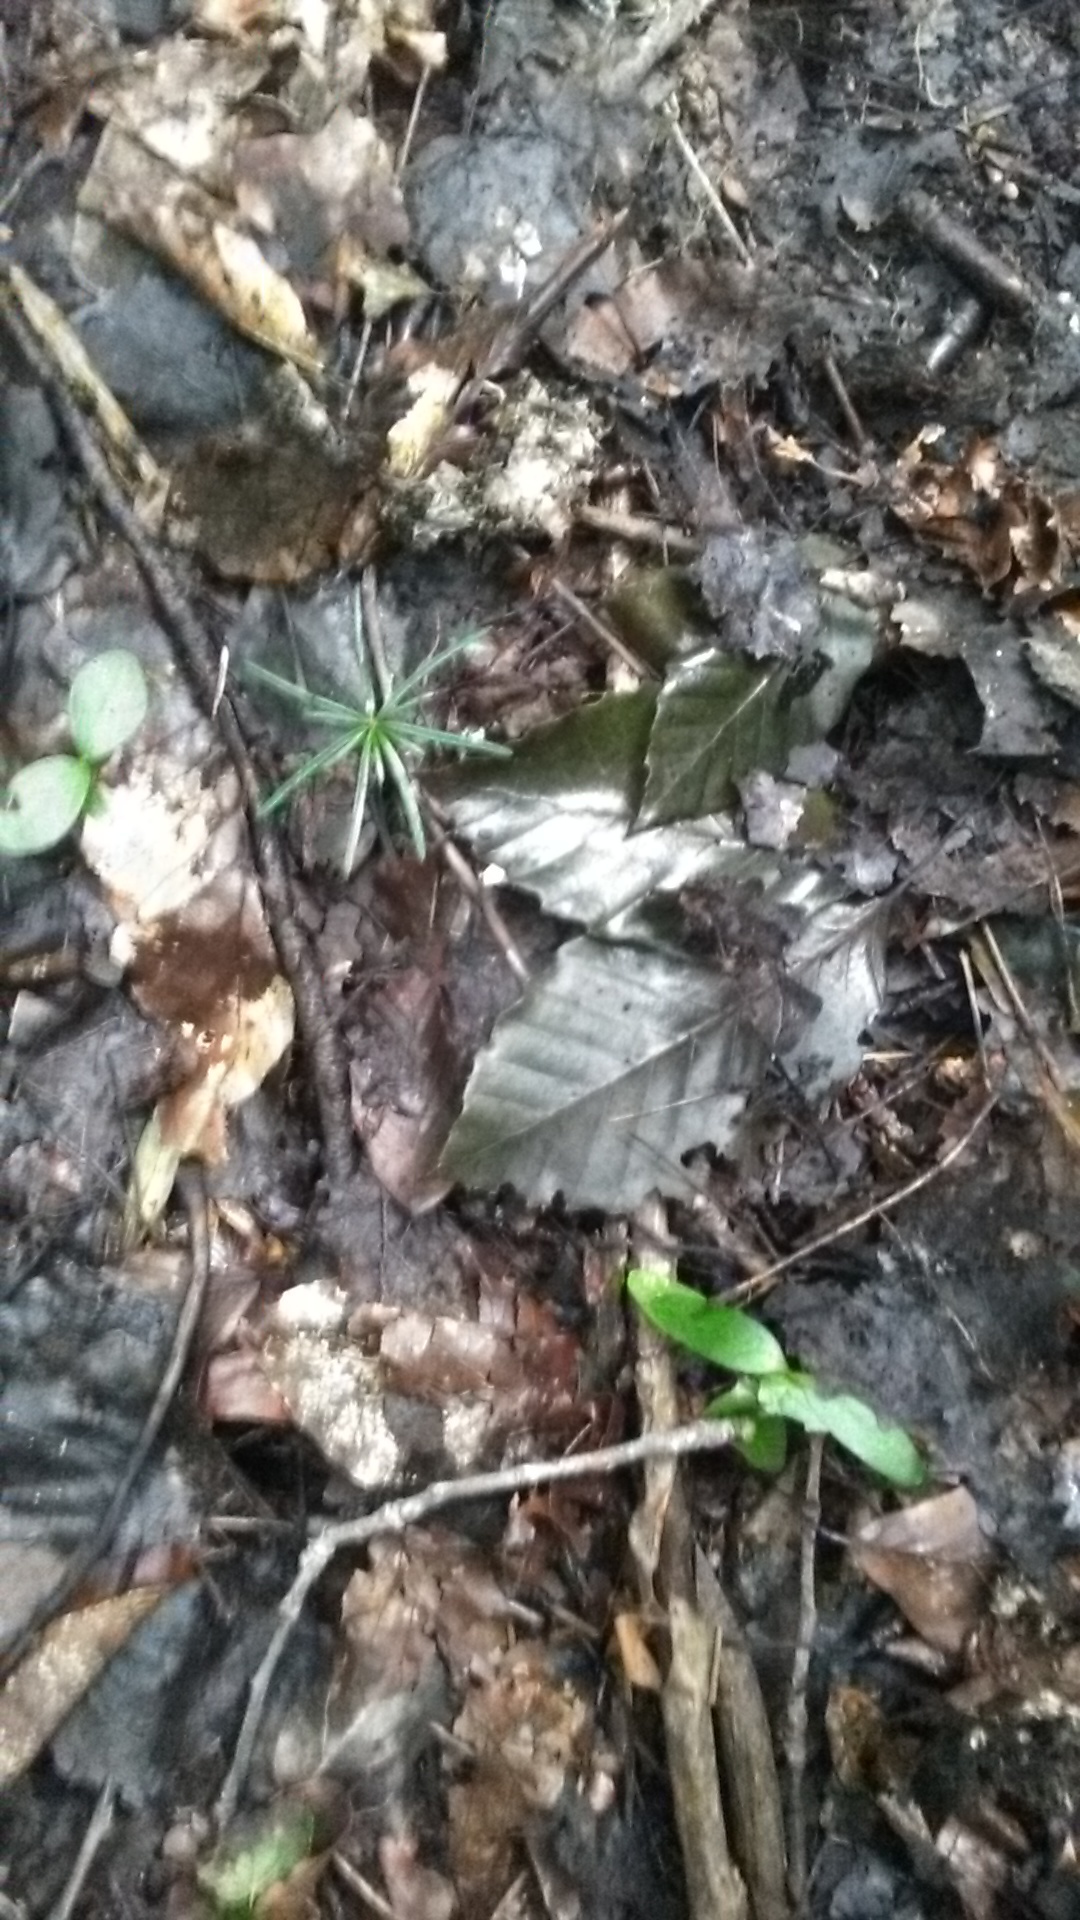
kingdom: Plantae
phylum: Tracheophyta
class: Pinopsida
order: Pinales
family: Pinaceae
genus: Abies
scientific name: Abies nordmanniana
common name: Caucasian fir
